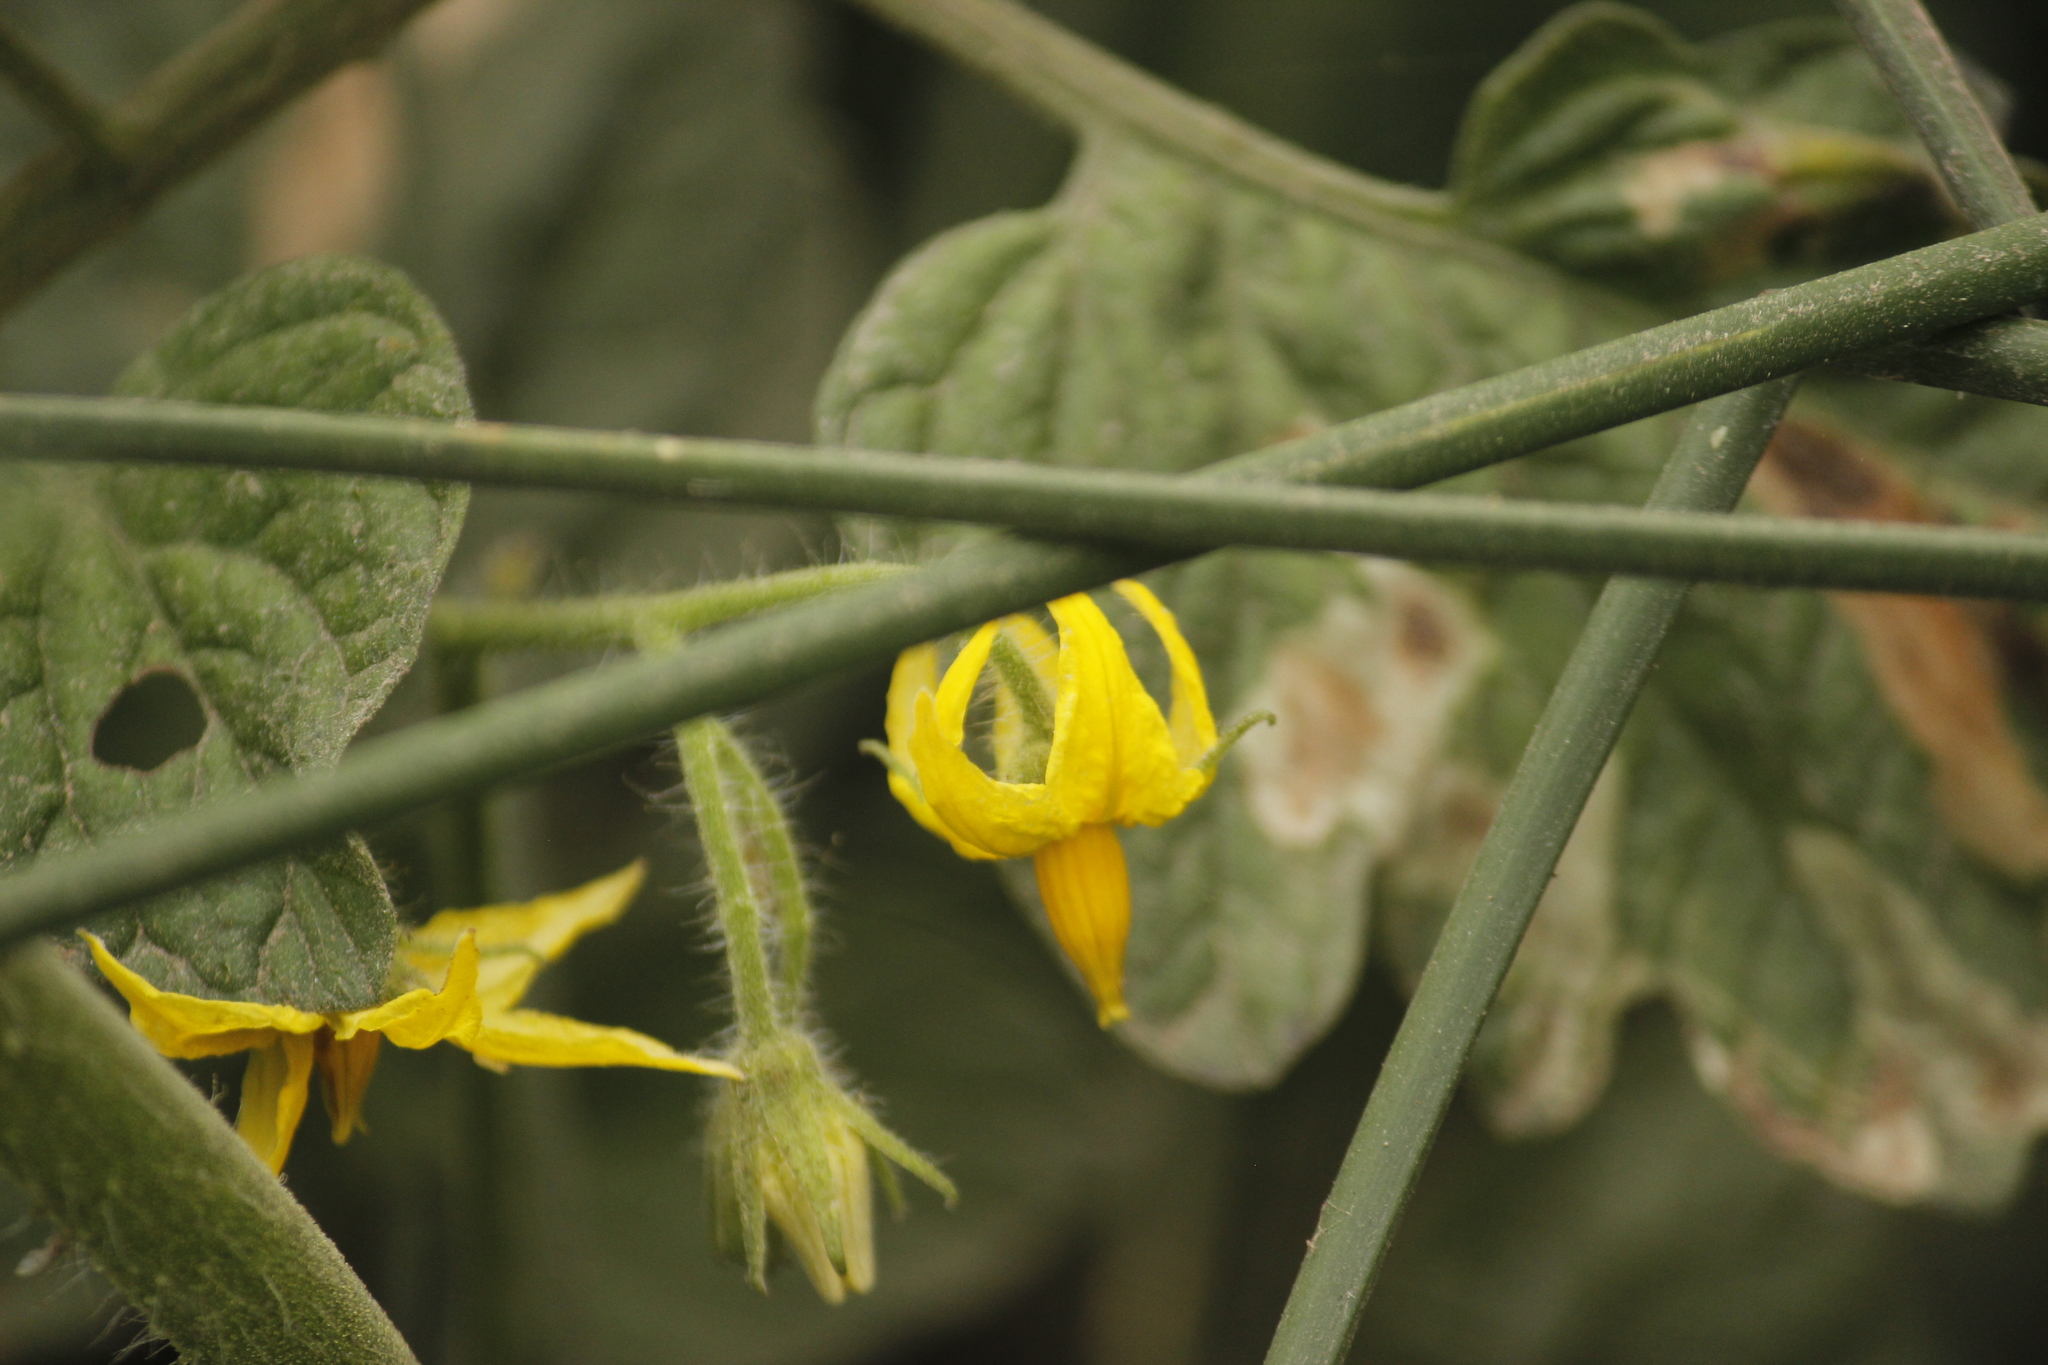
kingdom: Plantae
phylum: Tracheophyta
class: Magnoliopsida
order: Solanales
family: Solanaceae
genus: Solanum
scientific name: Solanum lycopersicum
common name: Garden tomato
